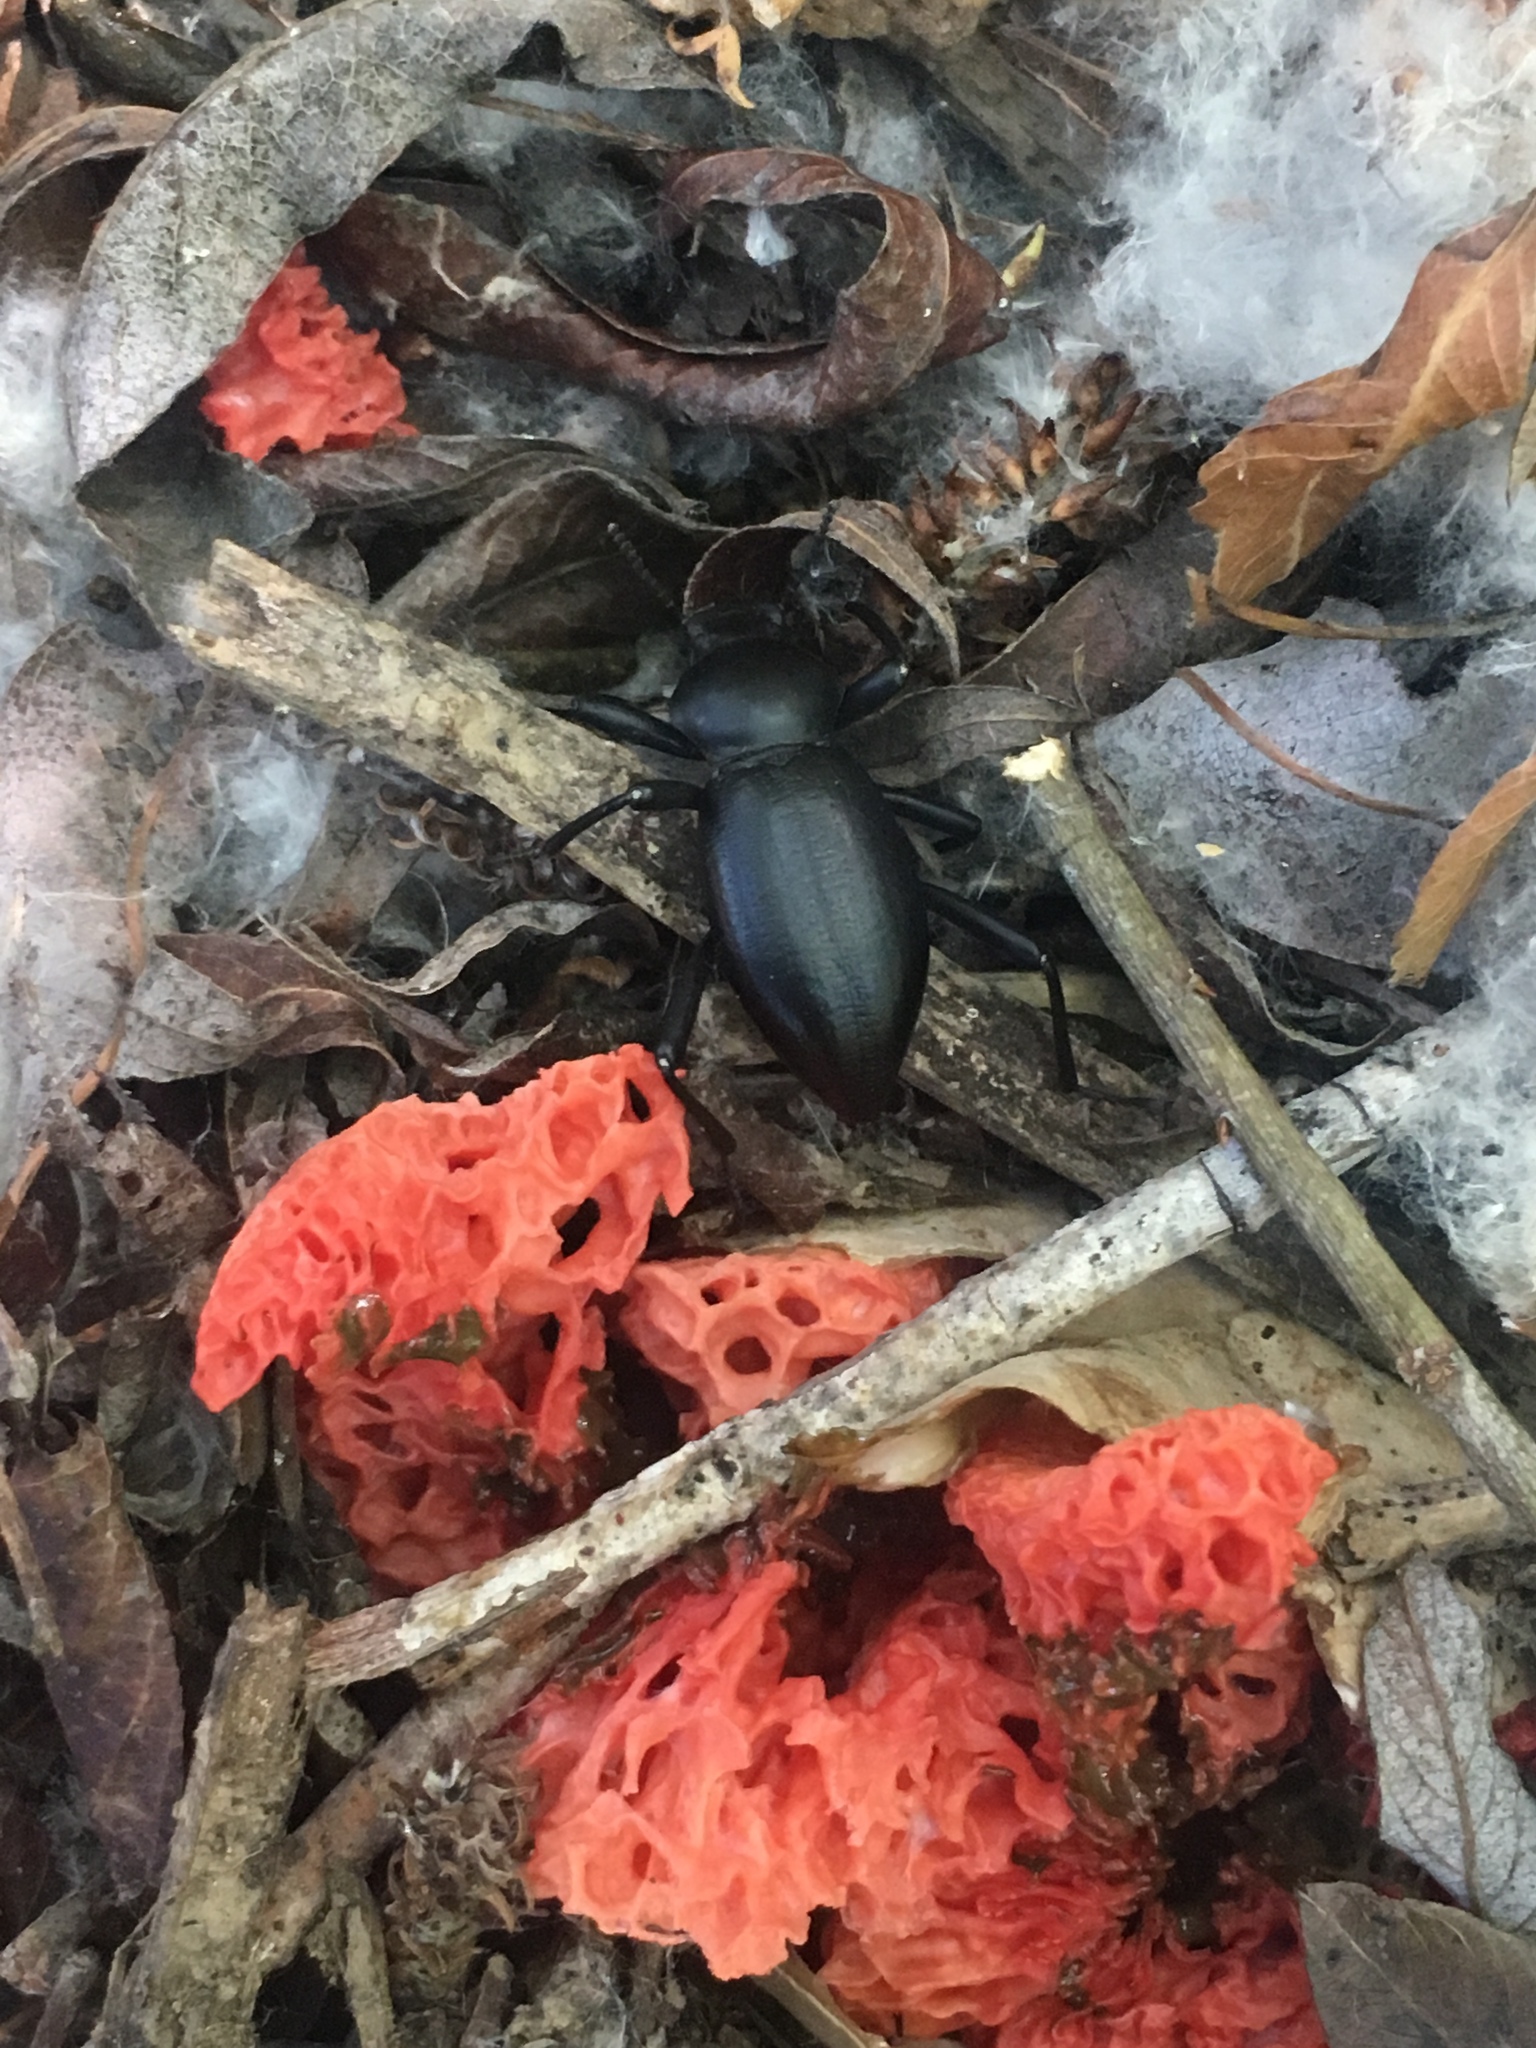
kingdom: Fungi
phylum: Basidiomycota
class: Agaricomycetes
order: Phallales
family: Phallaceae
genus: Clathrus
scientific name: Clathrus ruber
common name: Red cage
